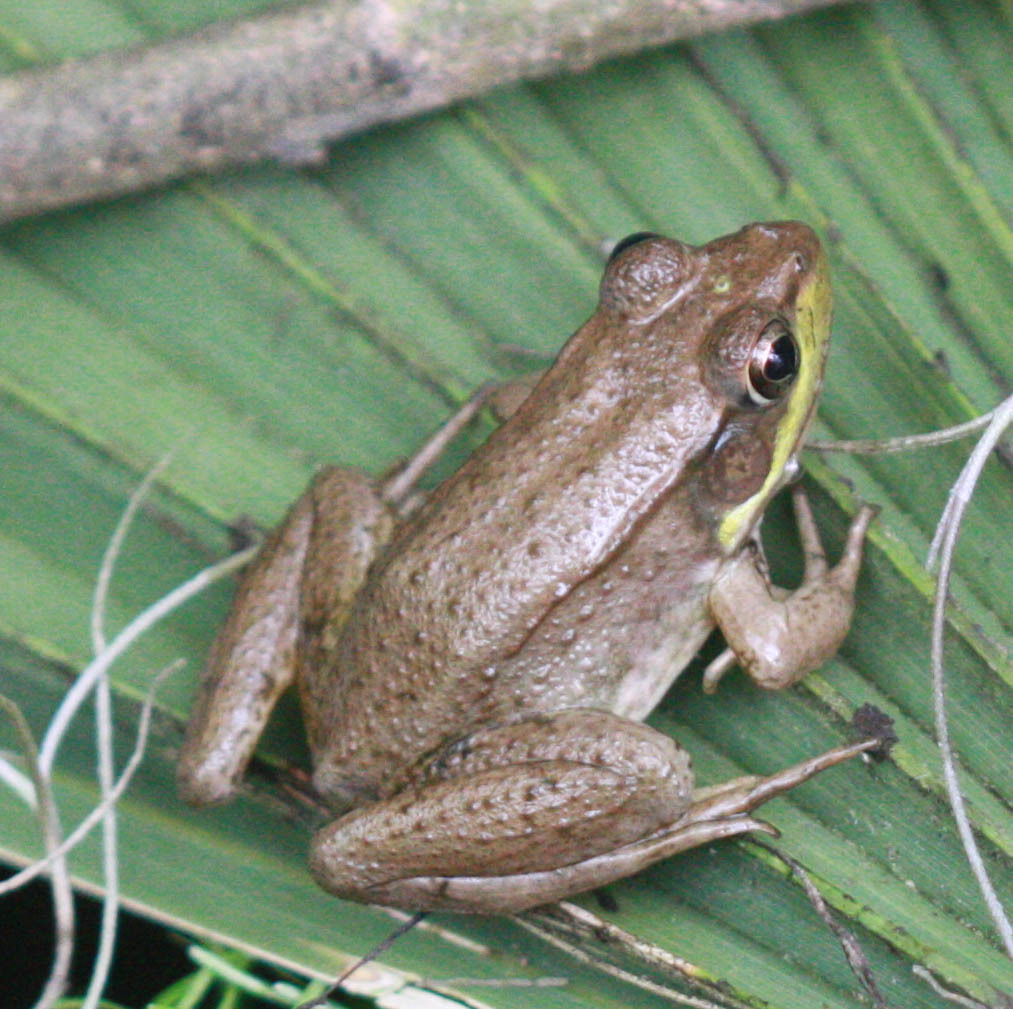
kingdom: Animalia
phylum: Chordata
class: Amphibia
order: Anura
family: Ranidae
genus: Lithobates
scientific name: Lithobates clamitans
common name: Green frog
